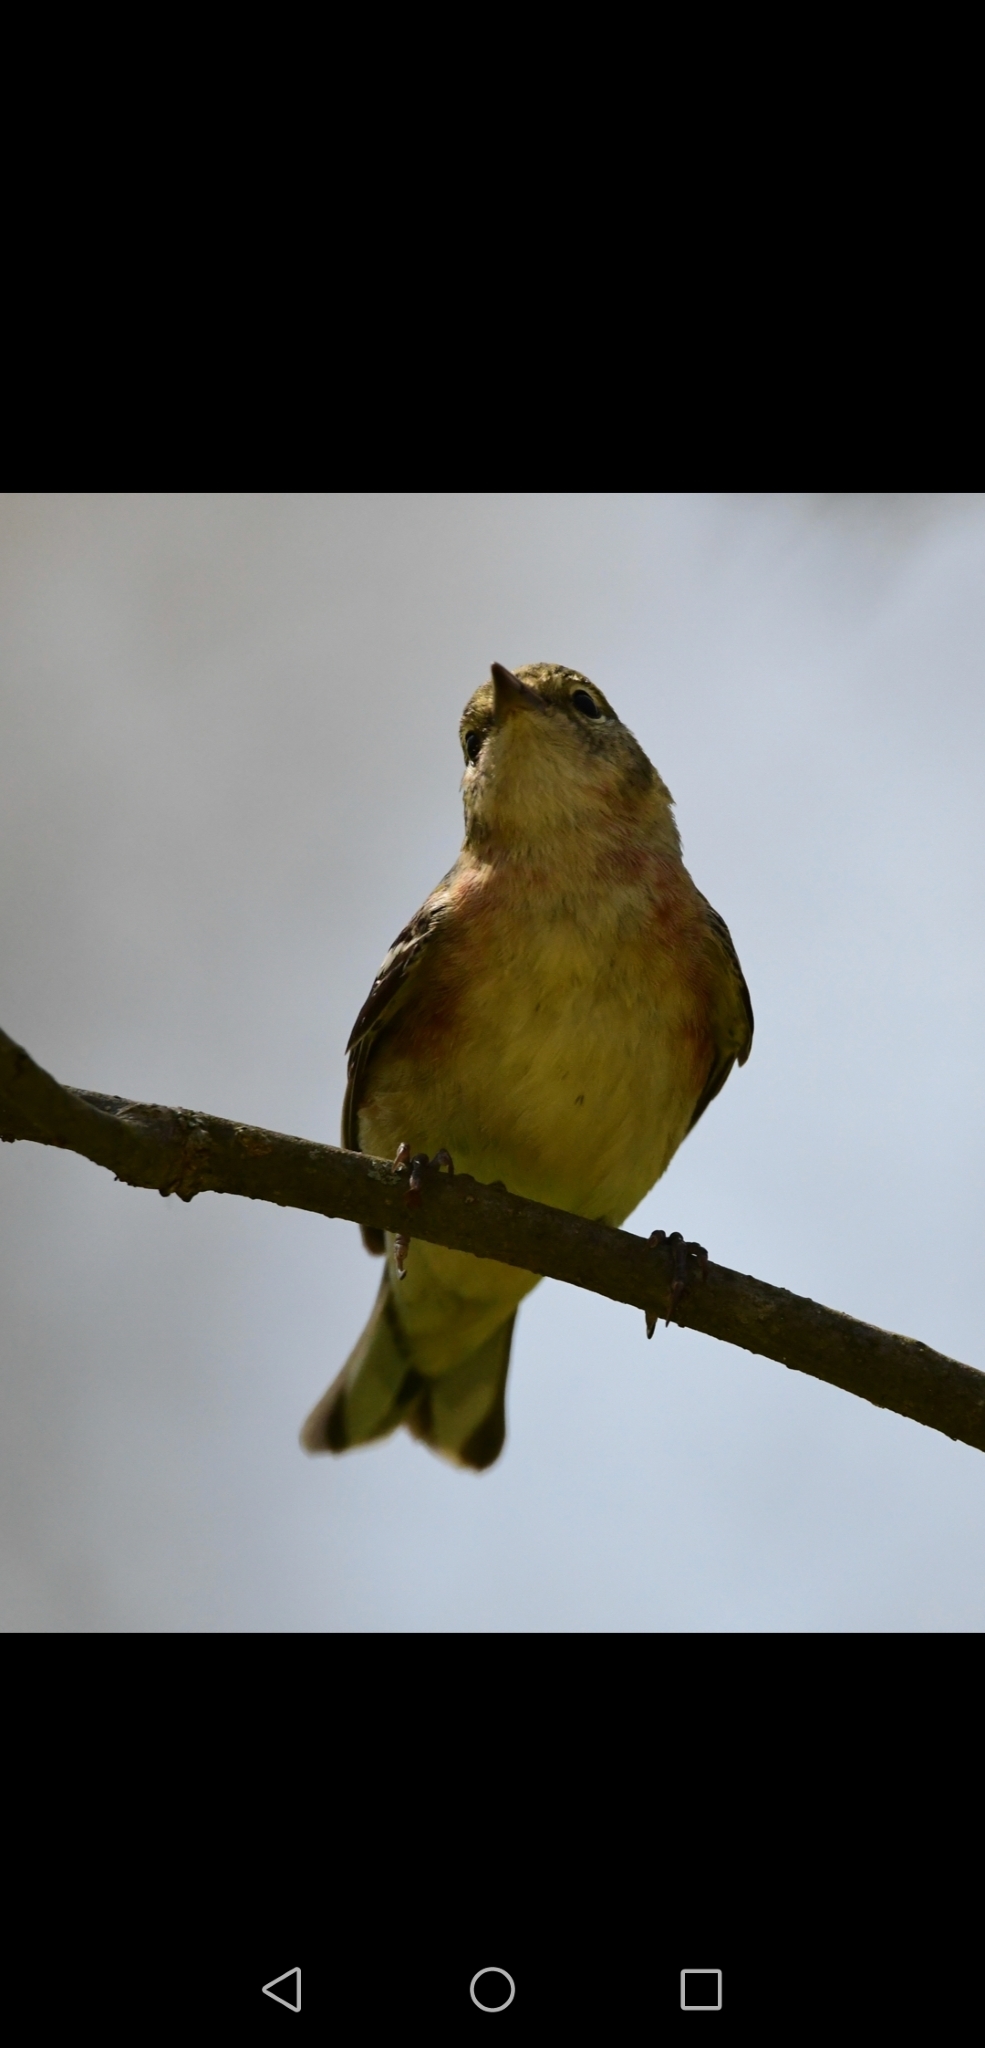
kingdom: Animalia
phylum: Chordata
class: Aves
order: Passeriformes
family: Parulidae
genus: Setophaga
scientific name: Setophaga castanea
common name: Bay-breasted warbler
